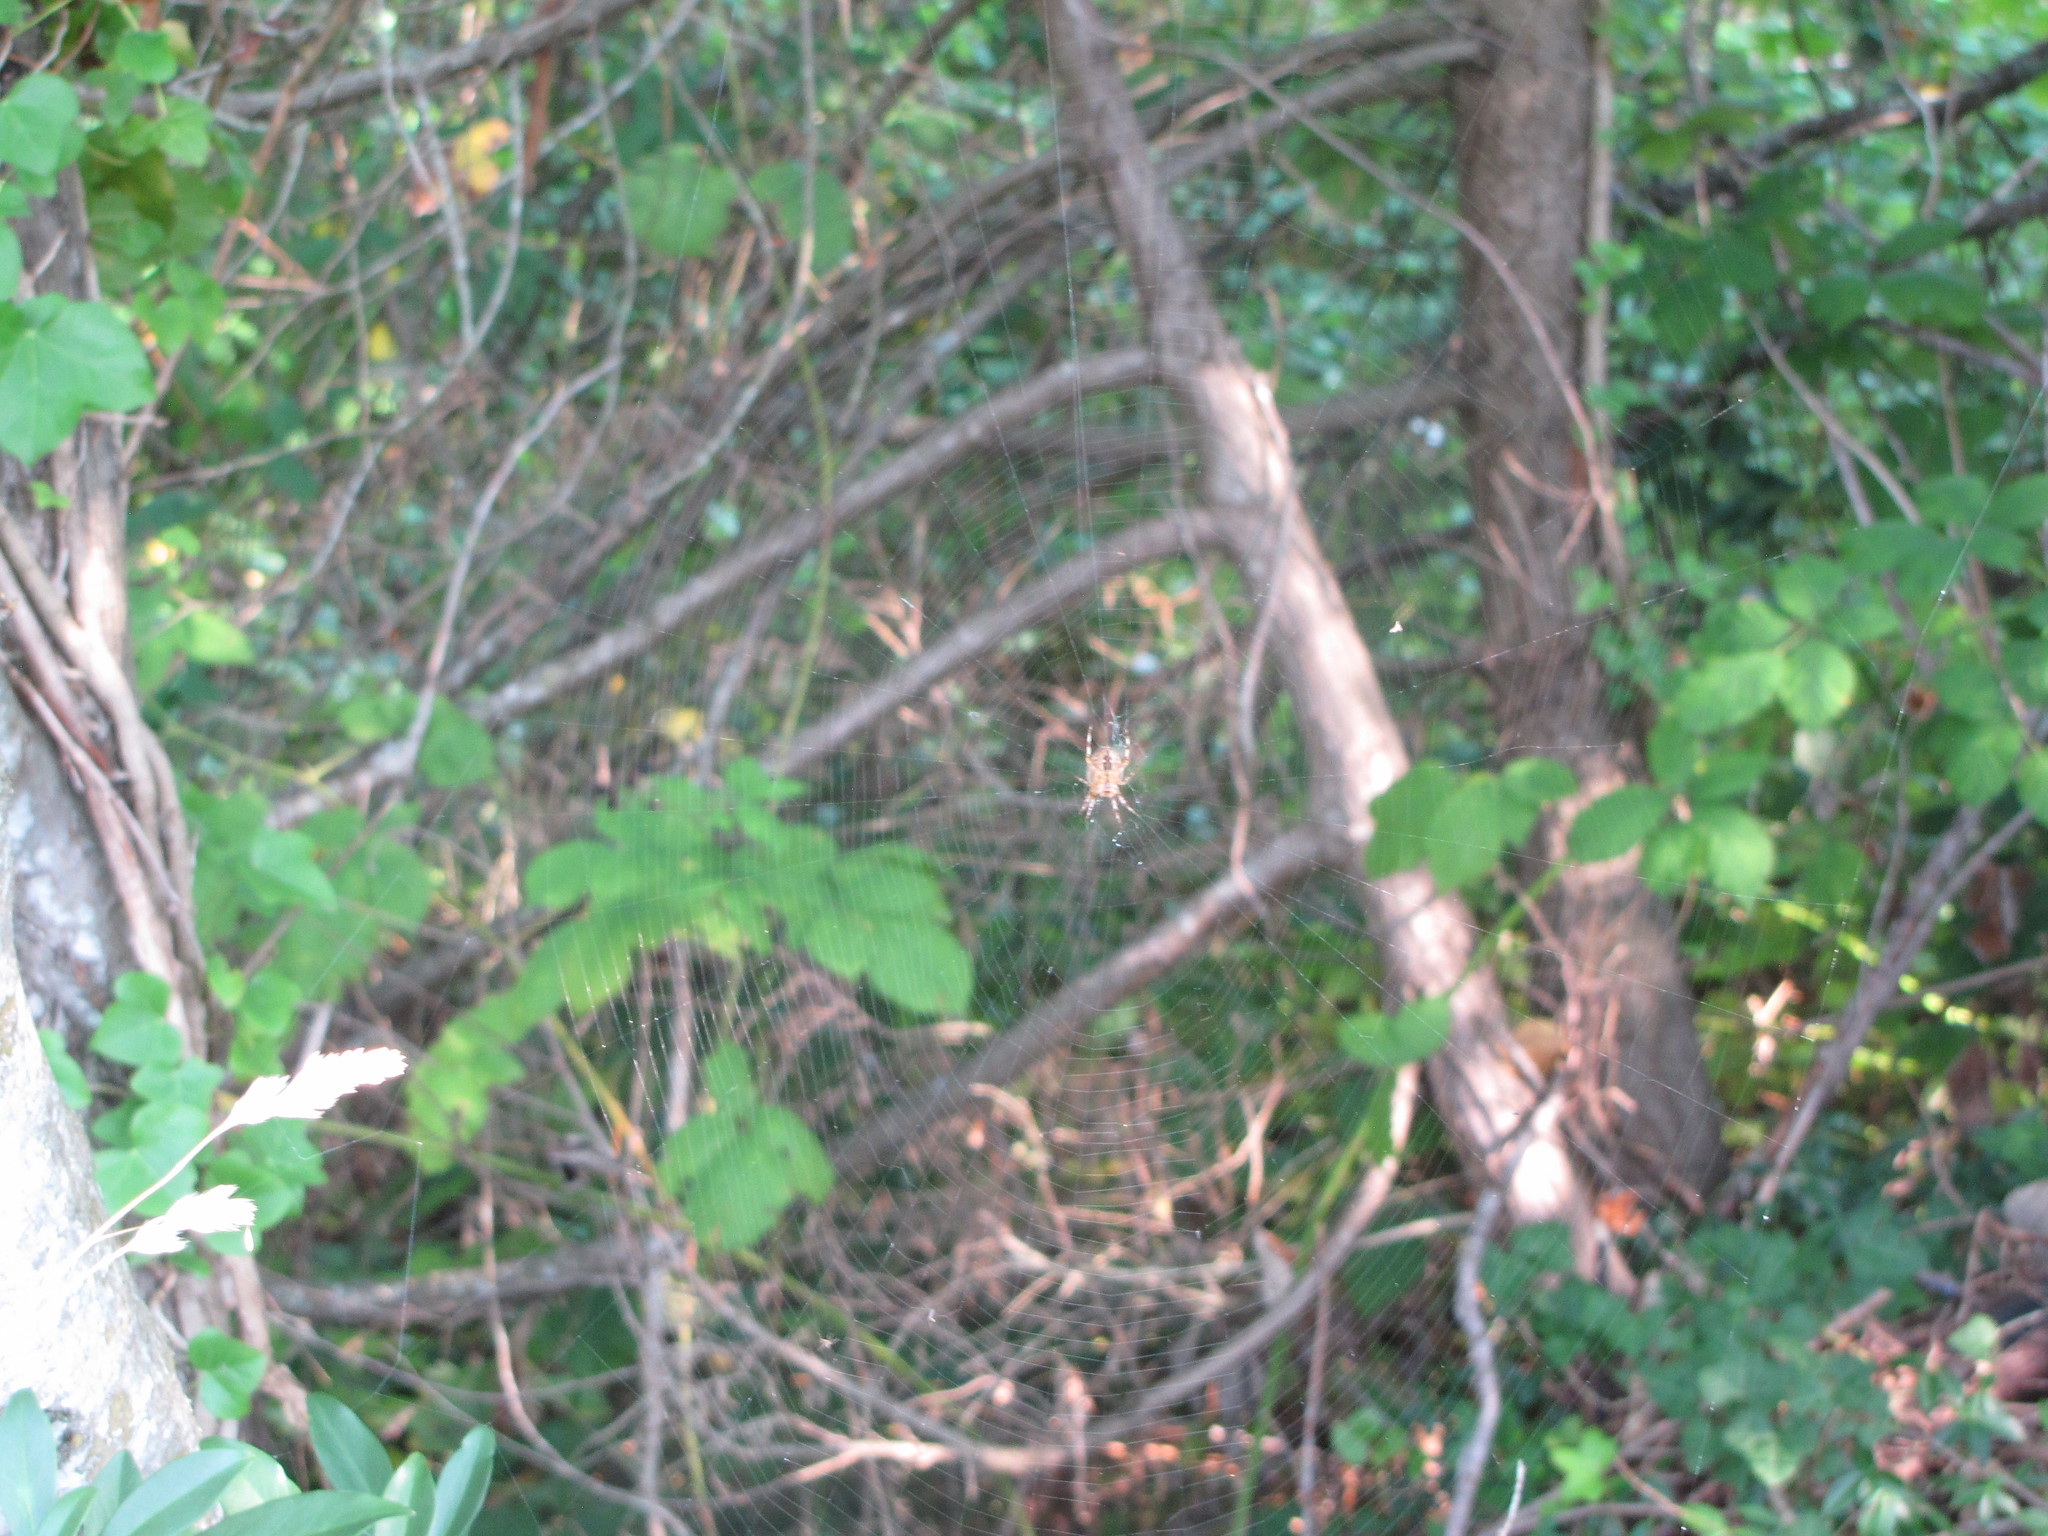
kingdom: Animalia
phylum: Arthropoda
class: Arachnida
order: Araneae
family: Araneidae
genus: Araneus
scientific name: Araneus diadematus
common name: Cross orbweaver
